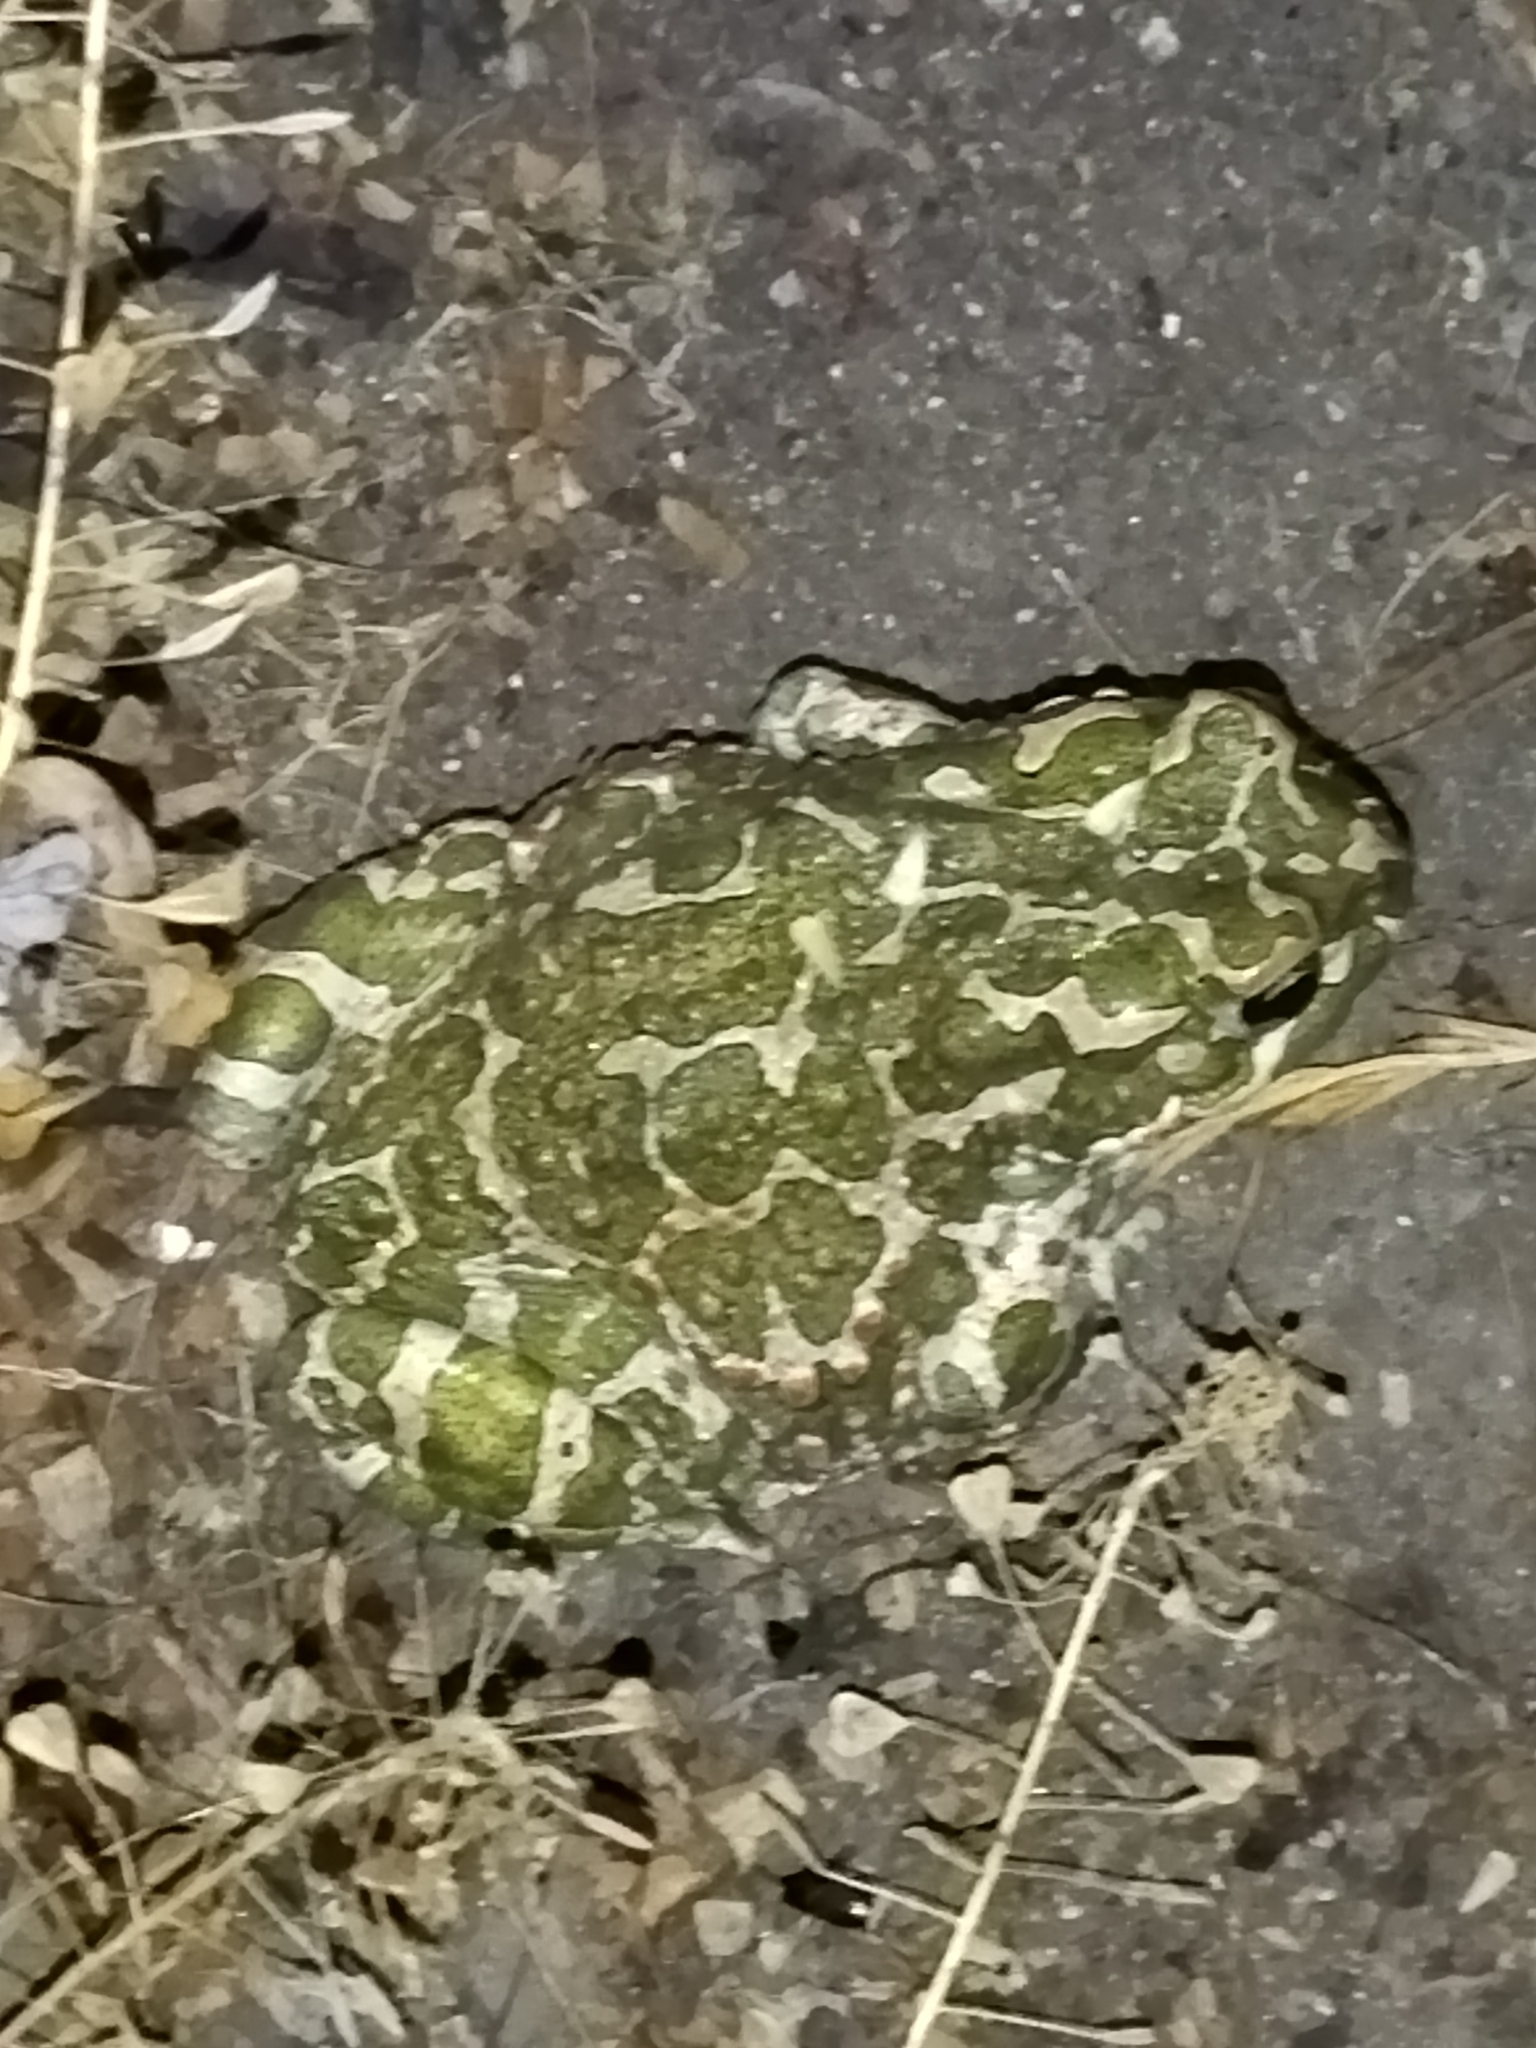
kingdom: Animalia
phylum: Chordata
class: Amphibia
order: Anura
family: Bufonidae
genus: Bufotes
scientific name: Bufotes viridis
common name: European green toad
